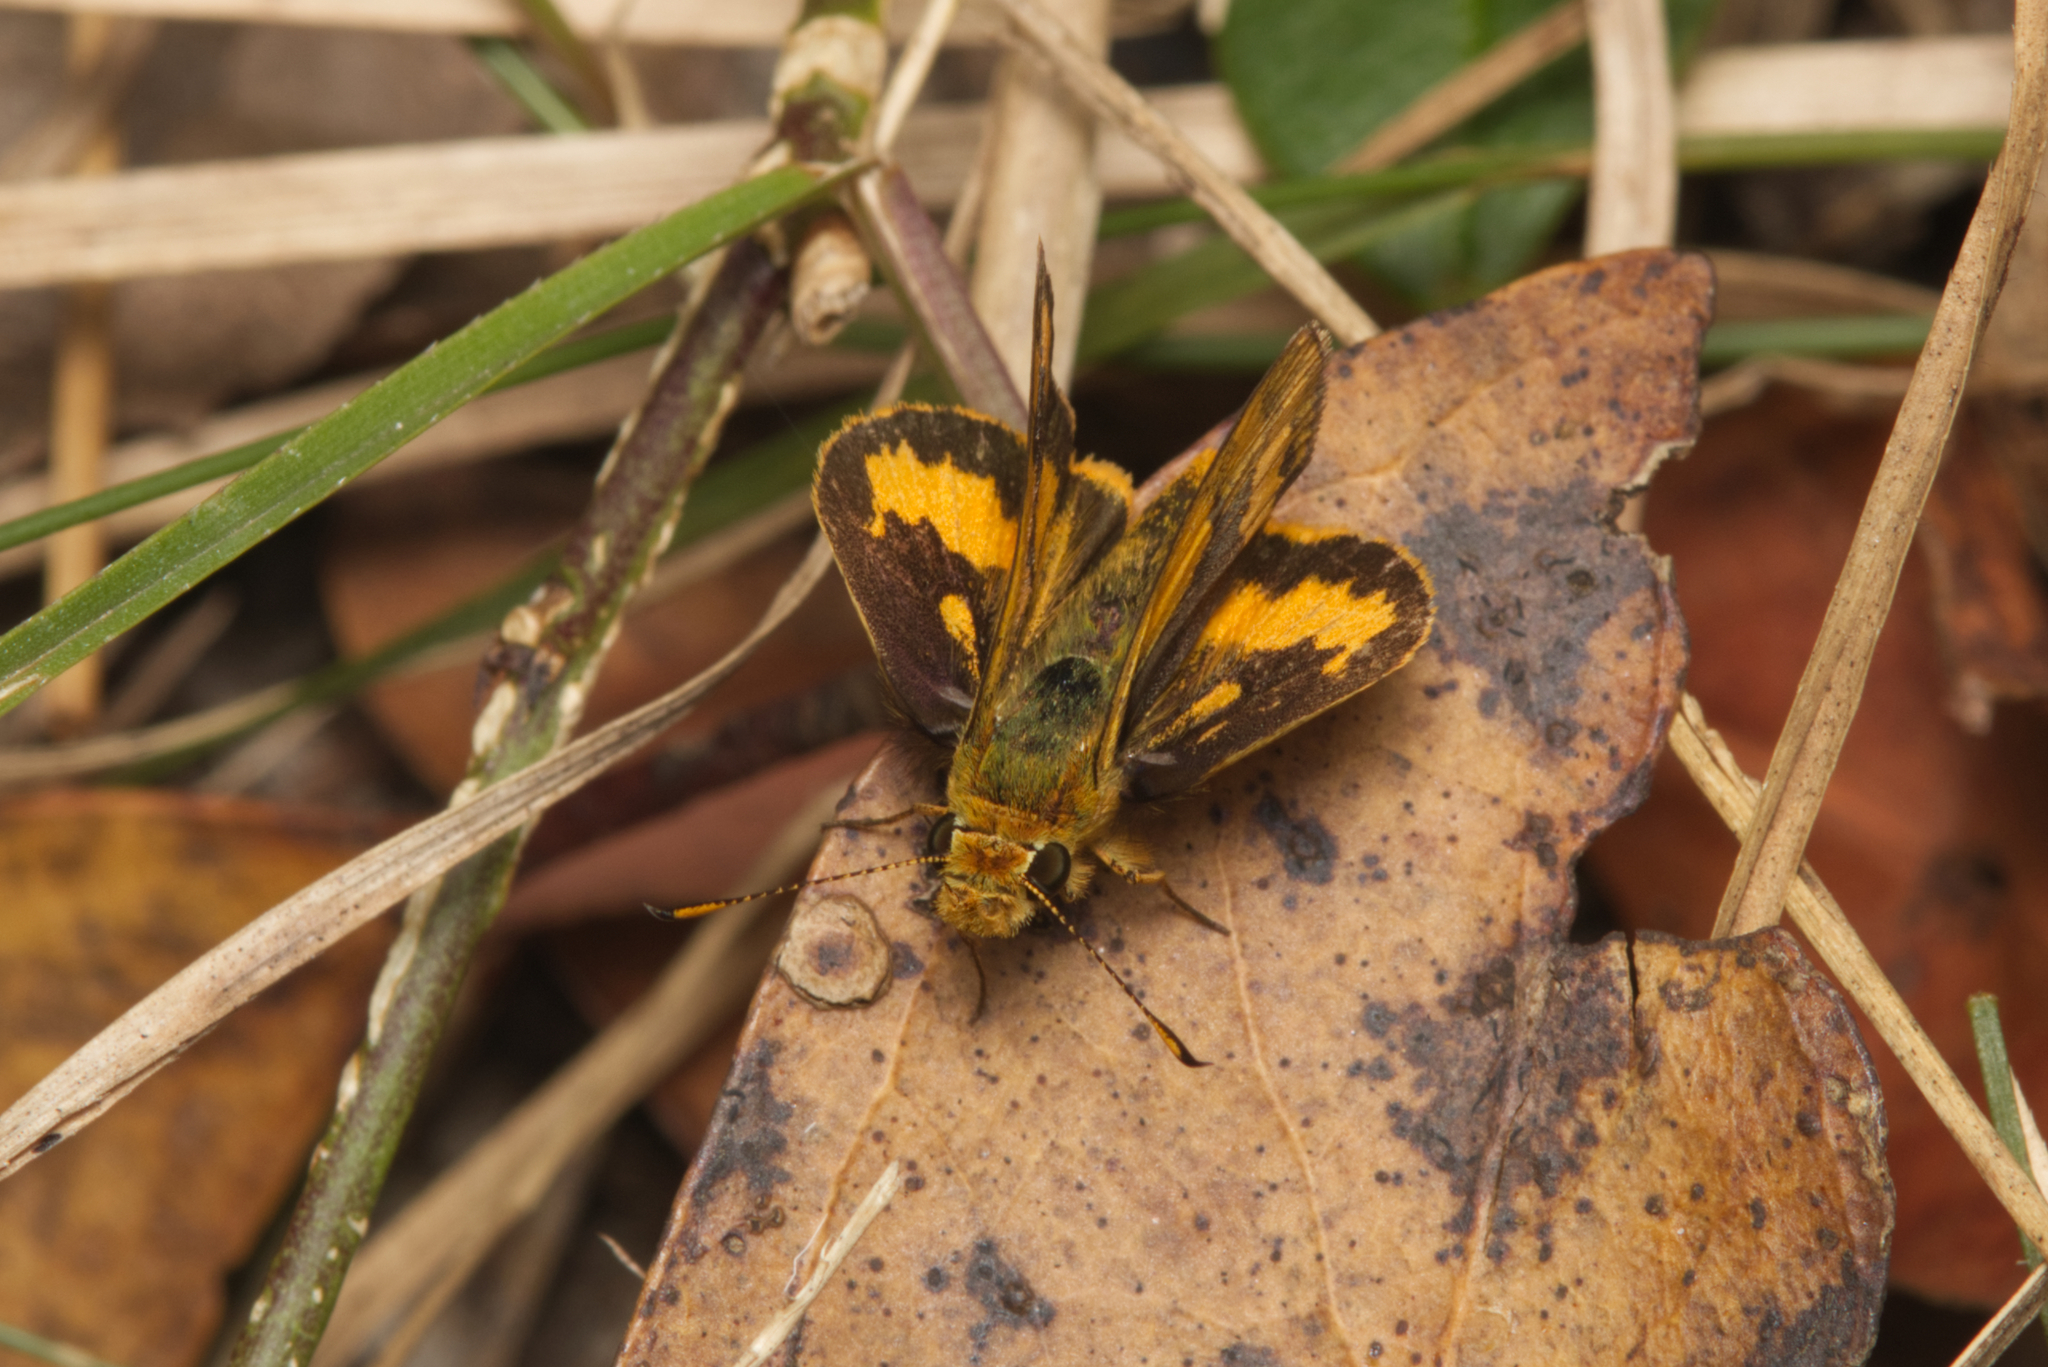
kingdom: Animalia
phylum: Arthropoda
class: Insecta
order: Lepidoptera
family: Hesperiidae
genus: Ocybadistes
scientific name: Ocybadistes walkeri
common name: Yellow-banded dart
